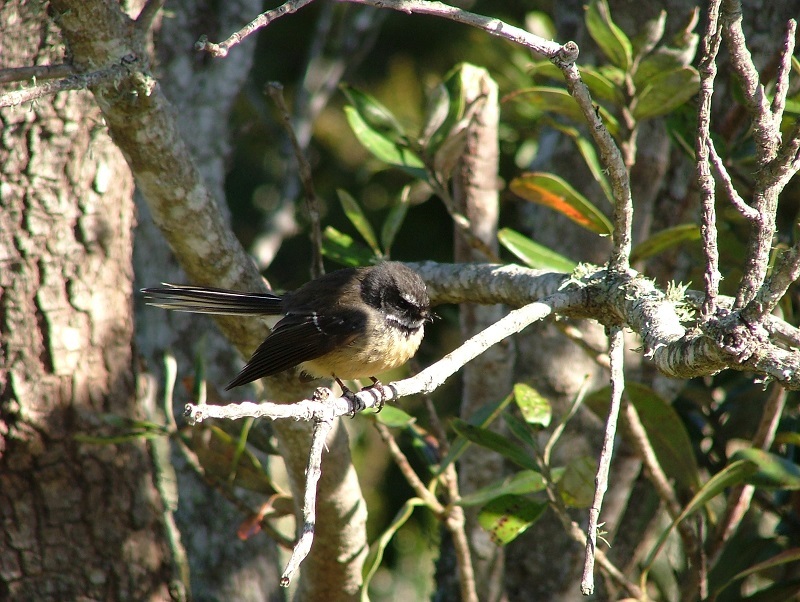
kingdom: Animalia
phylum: Chordata
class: Aves
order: Passeriformes
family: Rhipiduridae
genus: Rhipidura
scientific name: Rhipidura fuliginosa
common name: New zealand fantail
